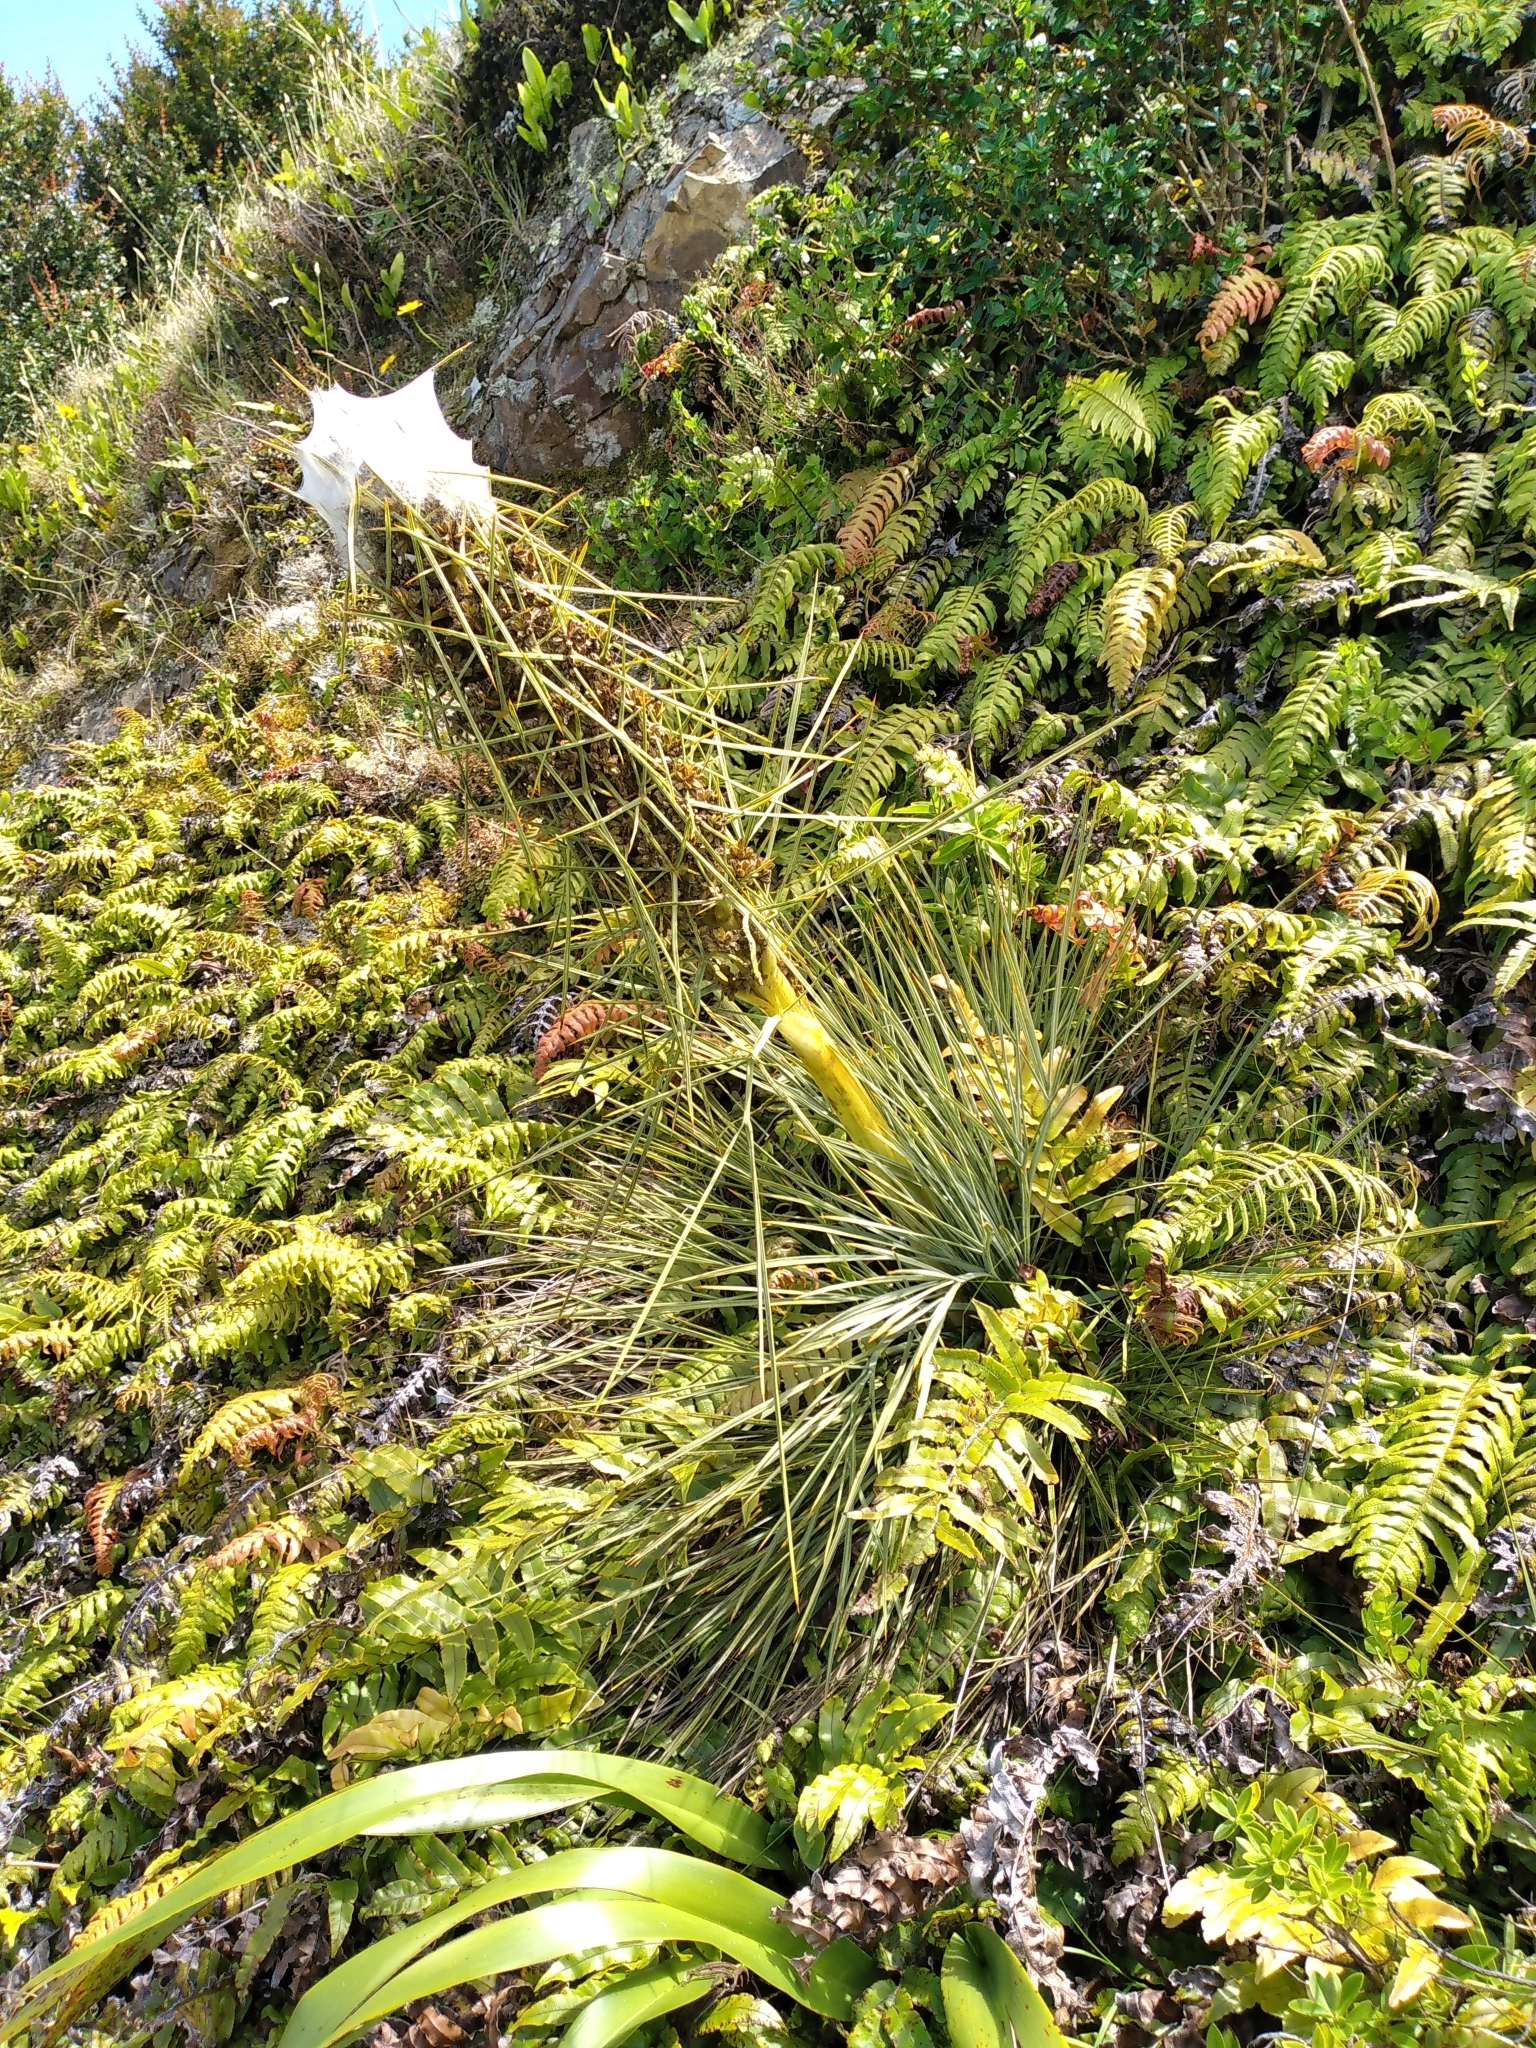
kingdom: Plantae
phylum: Tracheophyta
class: Magnoliopsida
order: Apiales
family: Apiaceae
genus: Aciphylla
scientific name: Aciphylla squarrosa
